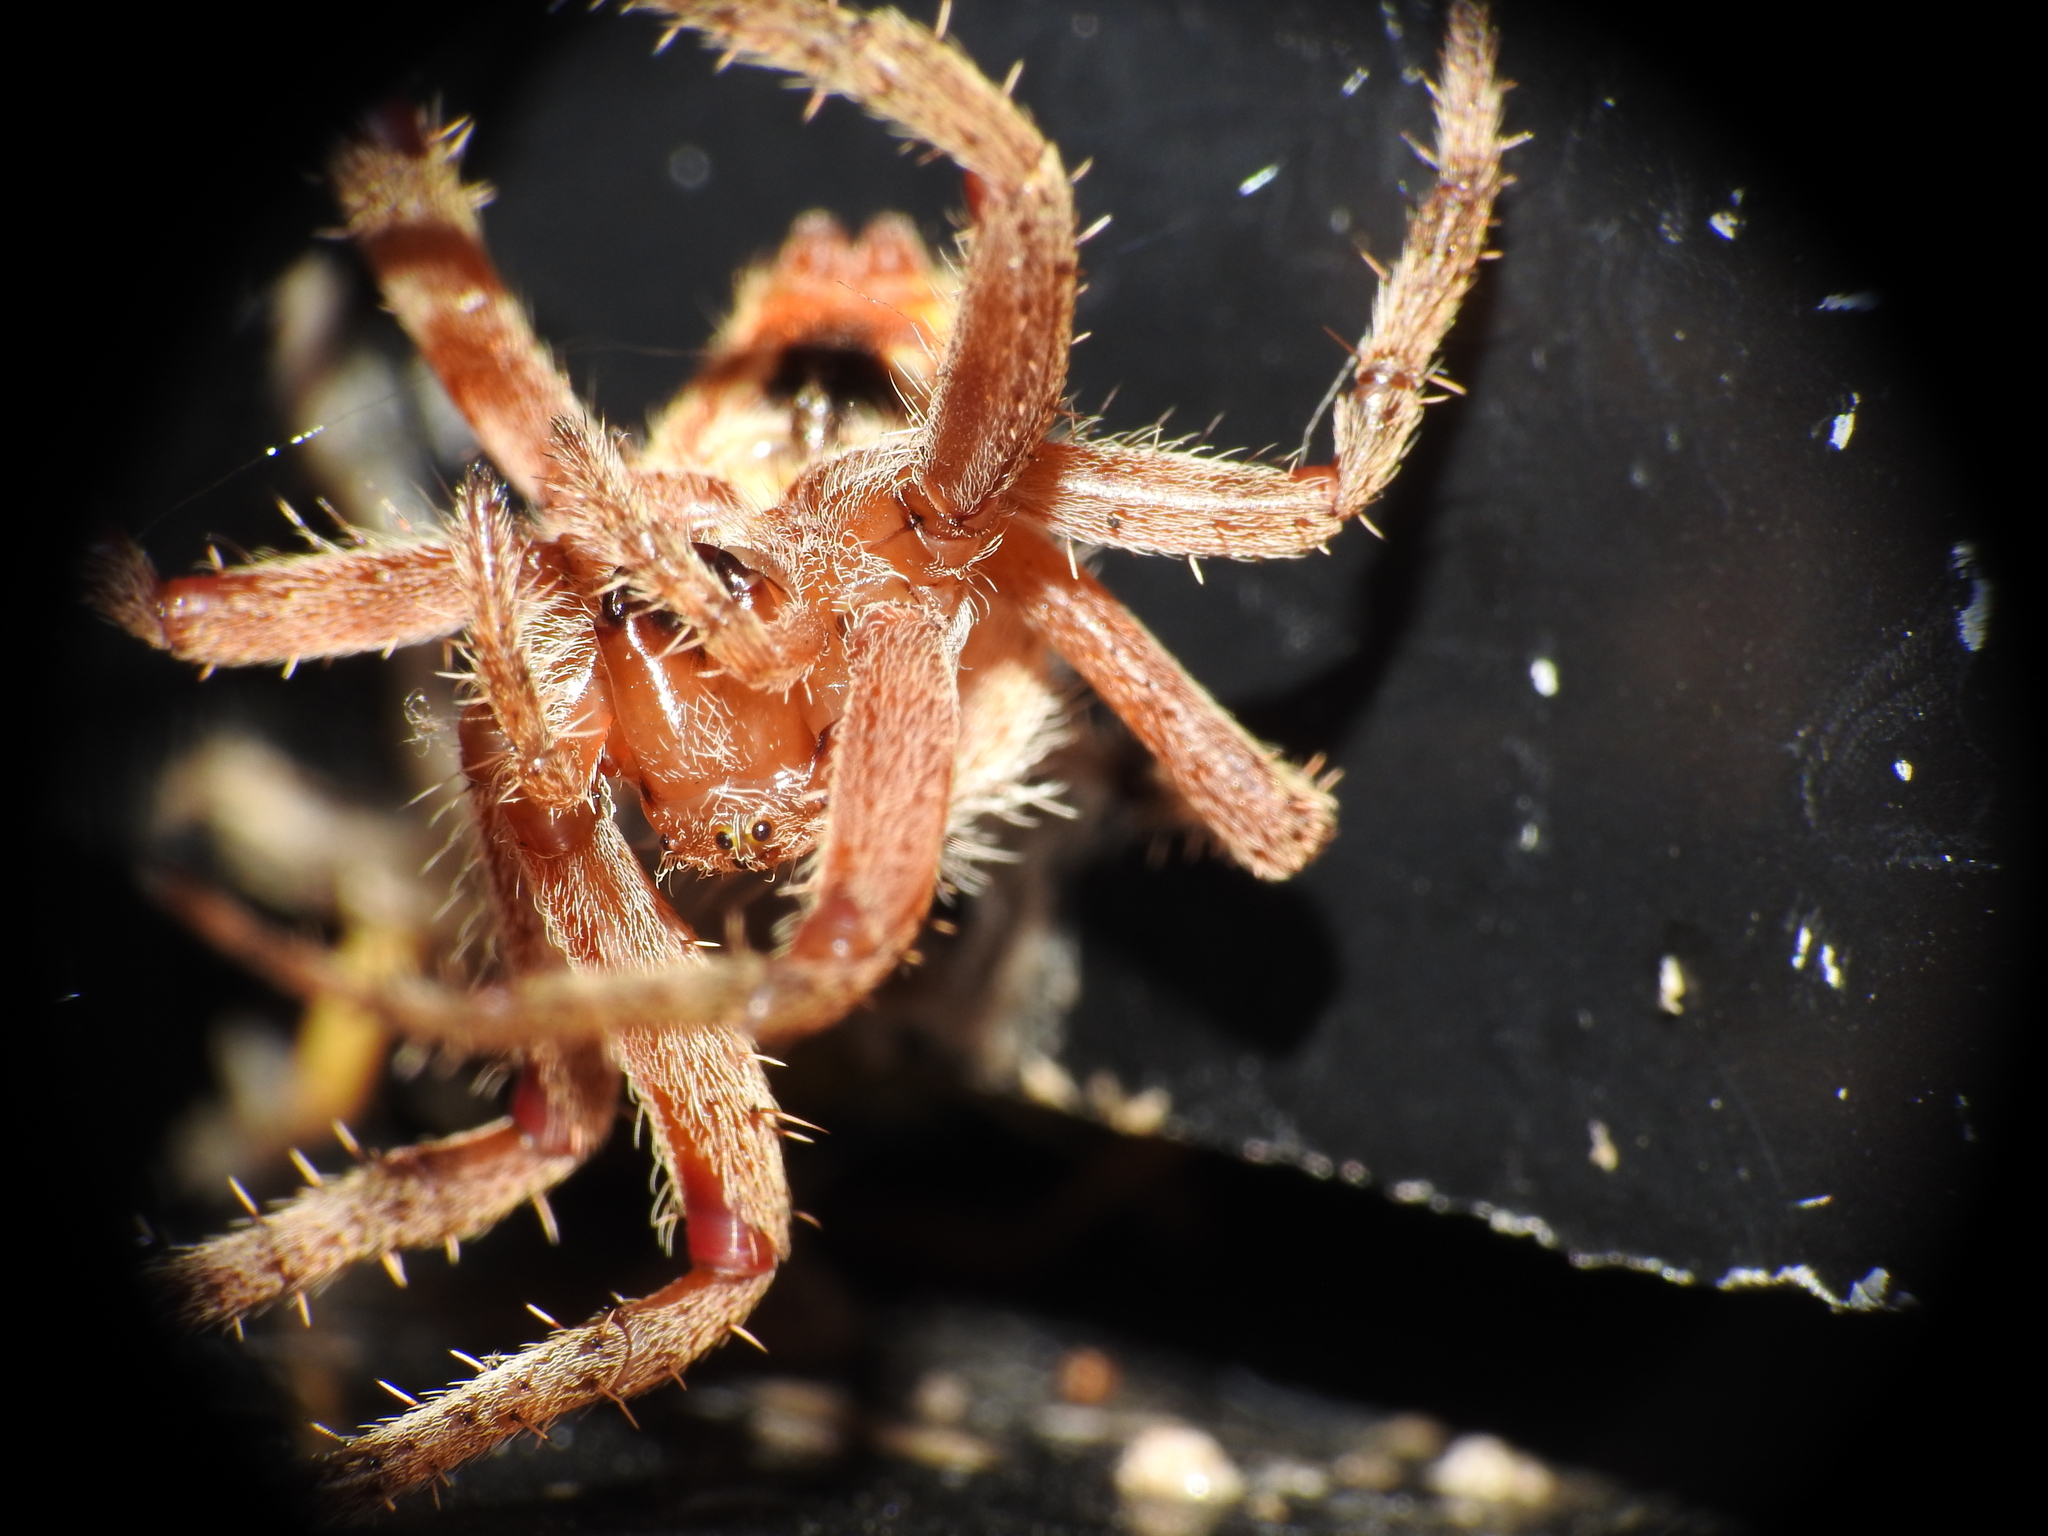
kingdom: Animalia
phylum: Arthropoda
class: Arachnida
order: Araneae
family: Araneidae
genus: Neoscona
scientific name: Neoscona crucifera
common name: Spotted orbweaver
